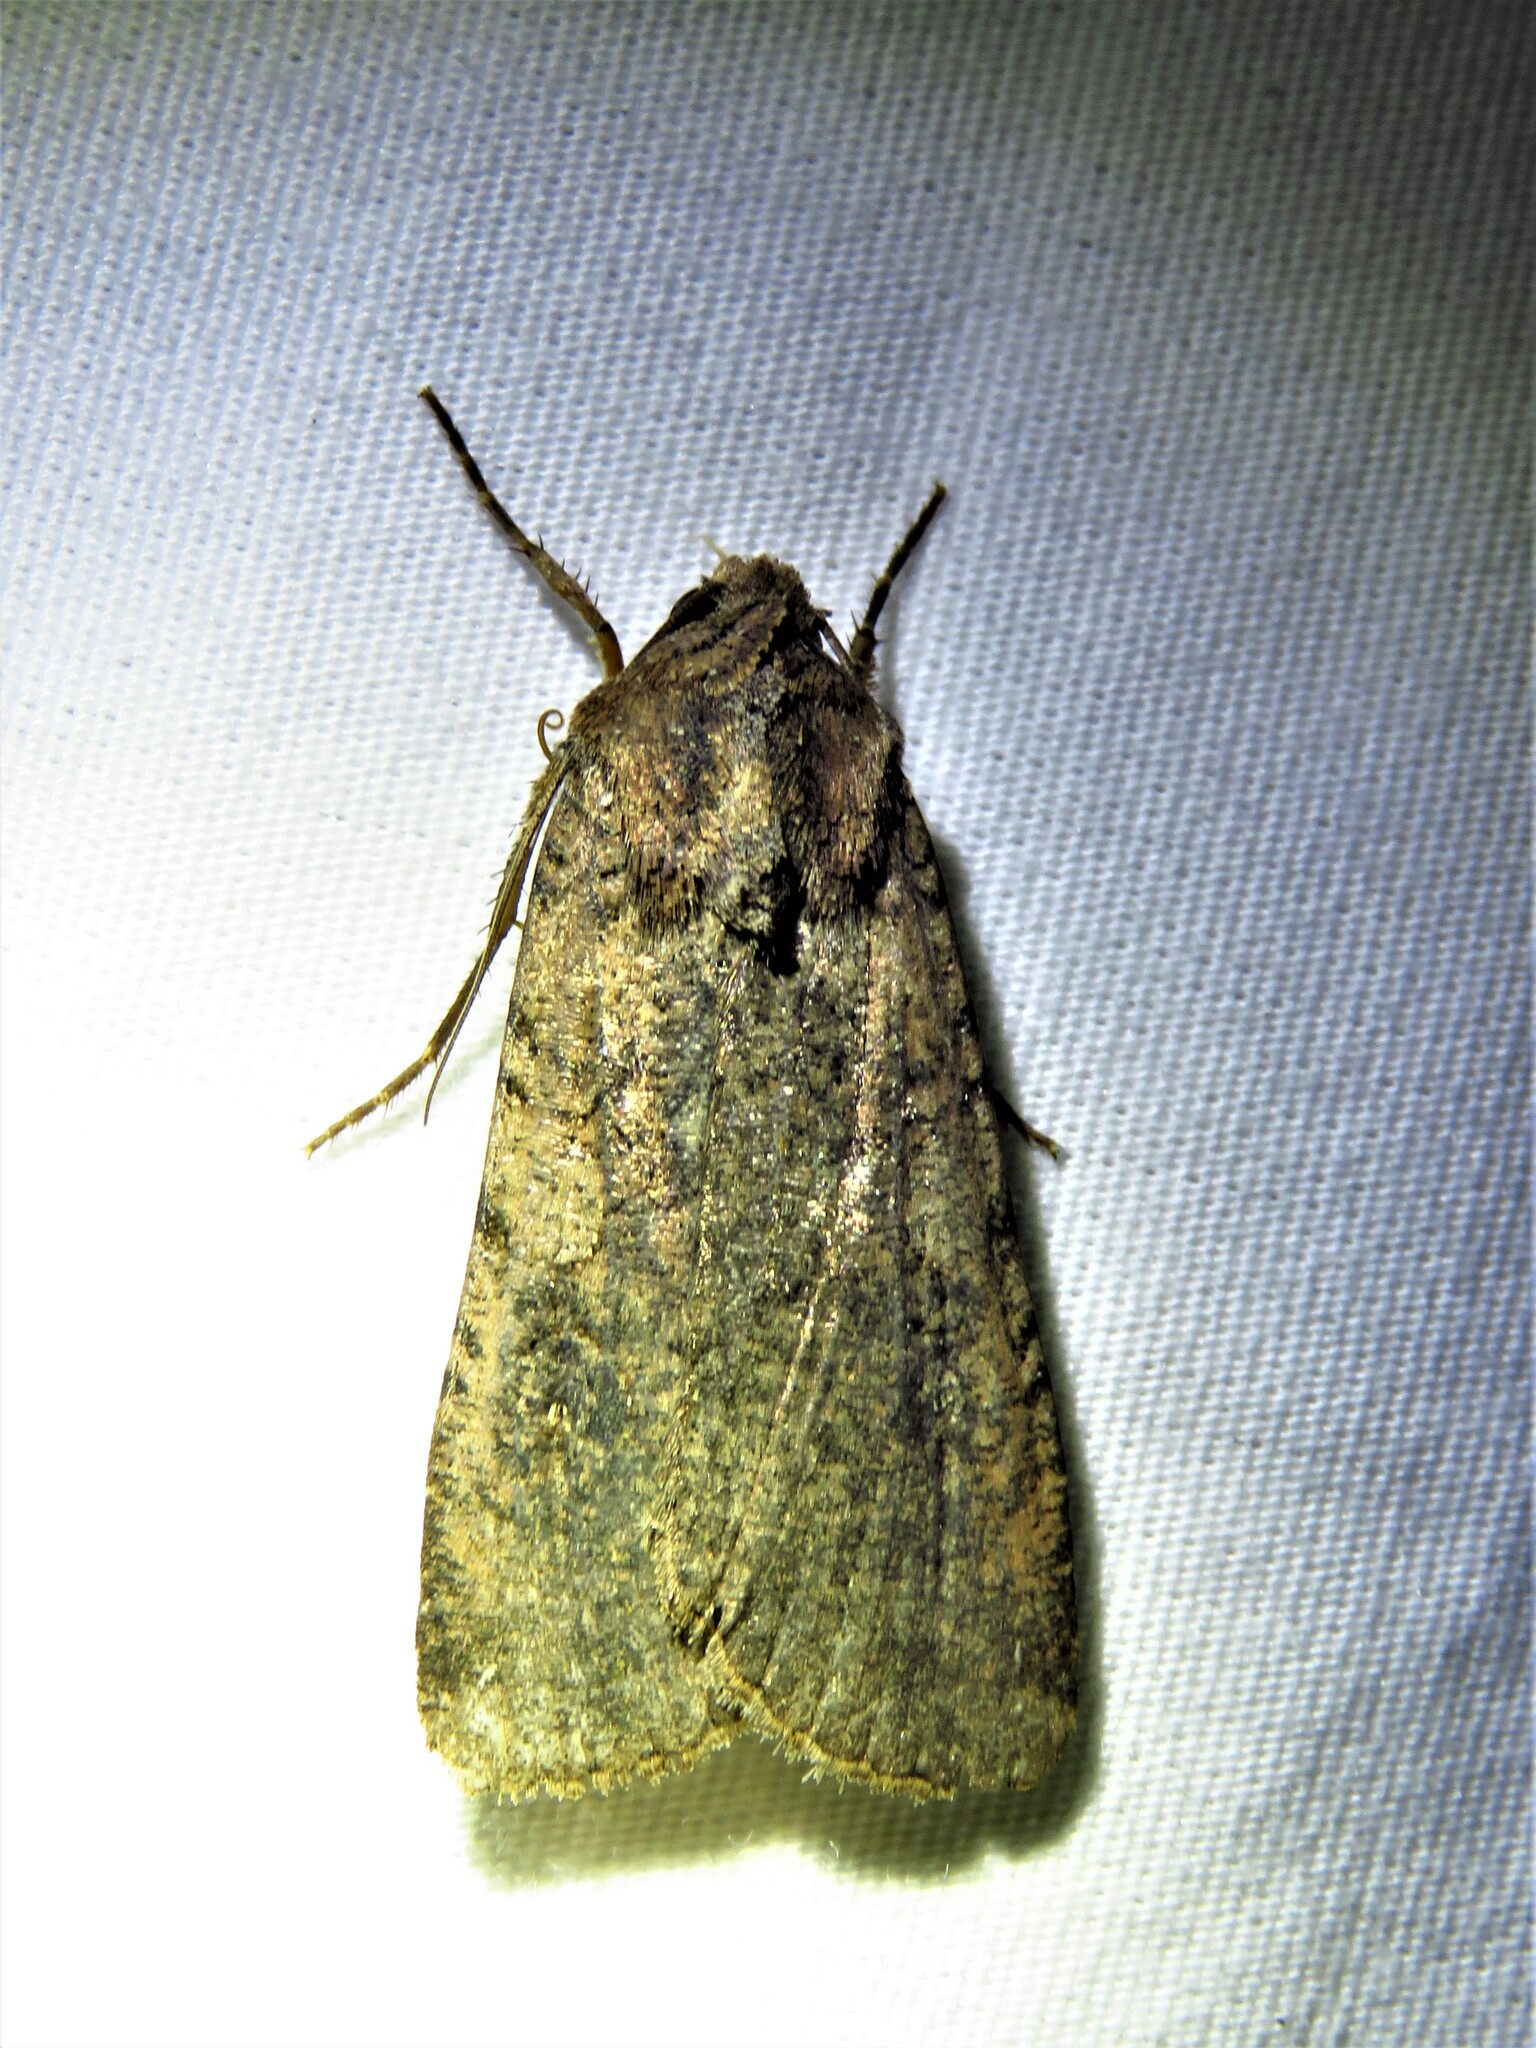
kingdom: Animalia
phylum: Arthropoda
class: Insecta
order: Lepidoptera
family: Noctuidae
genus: Peridroma
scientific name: Peridroma saucia
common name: Pearly underwing
